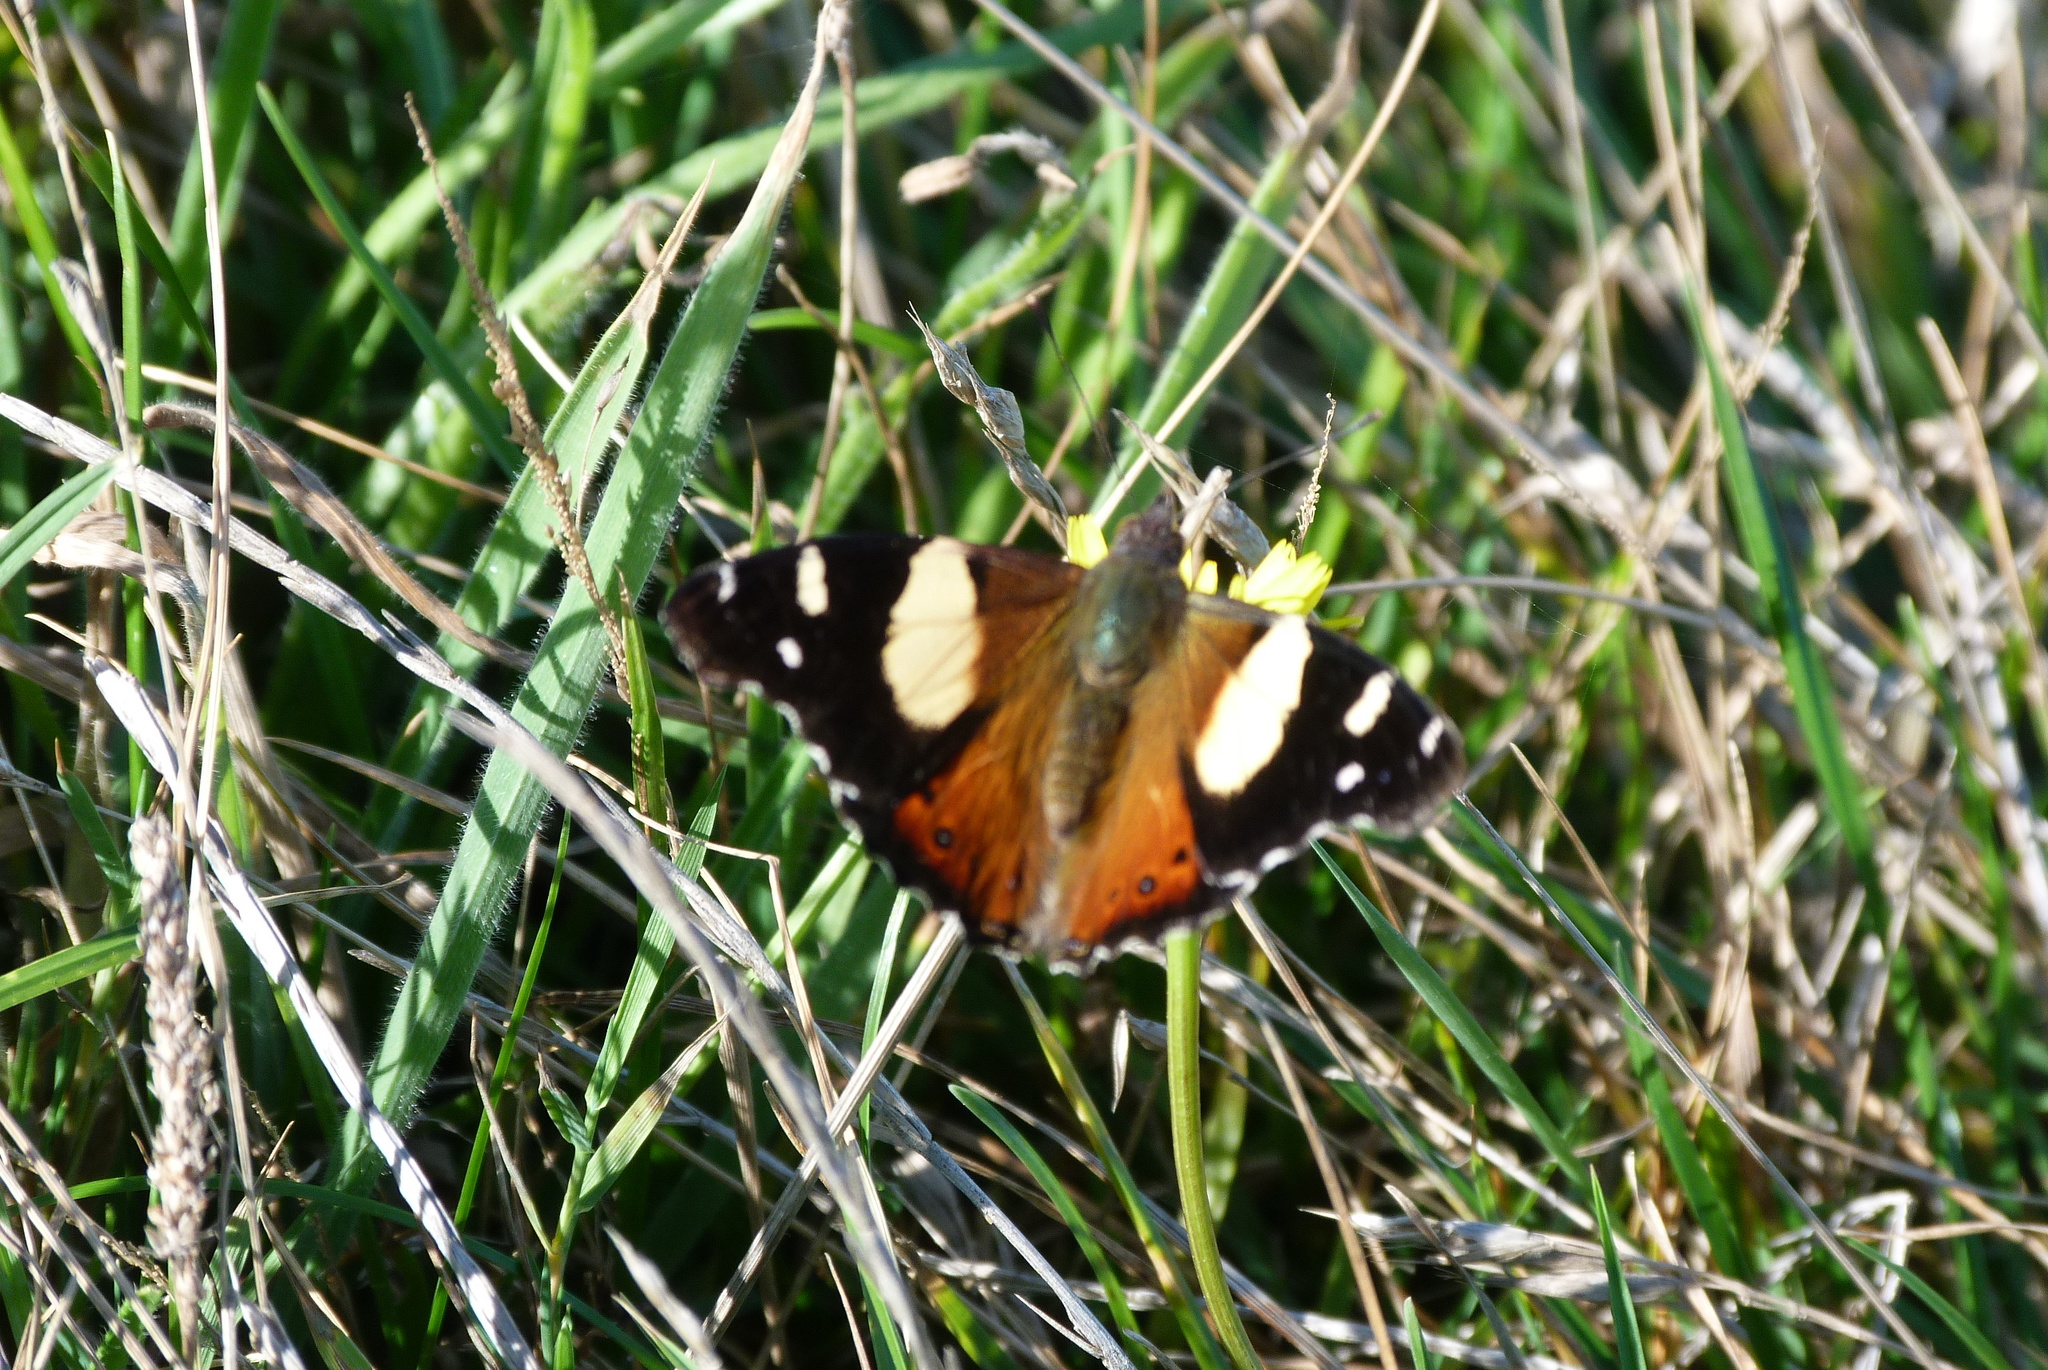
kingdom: Animalia
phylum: Arthropoda
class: Insecta
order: Lepidoptera
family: Nymphalidae
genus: Vanessa
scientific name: Vanessa itea
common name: Yellow admiral
